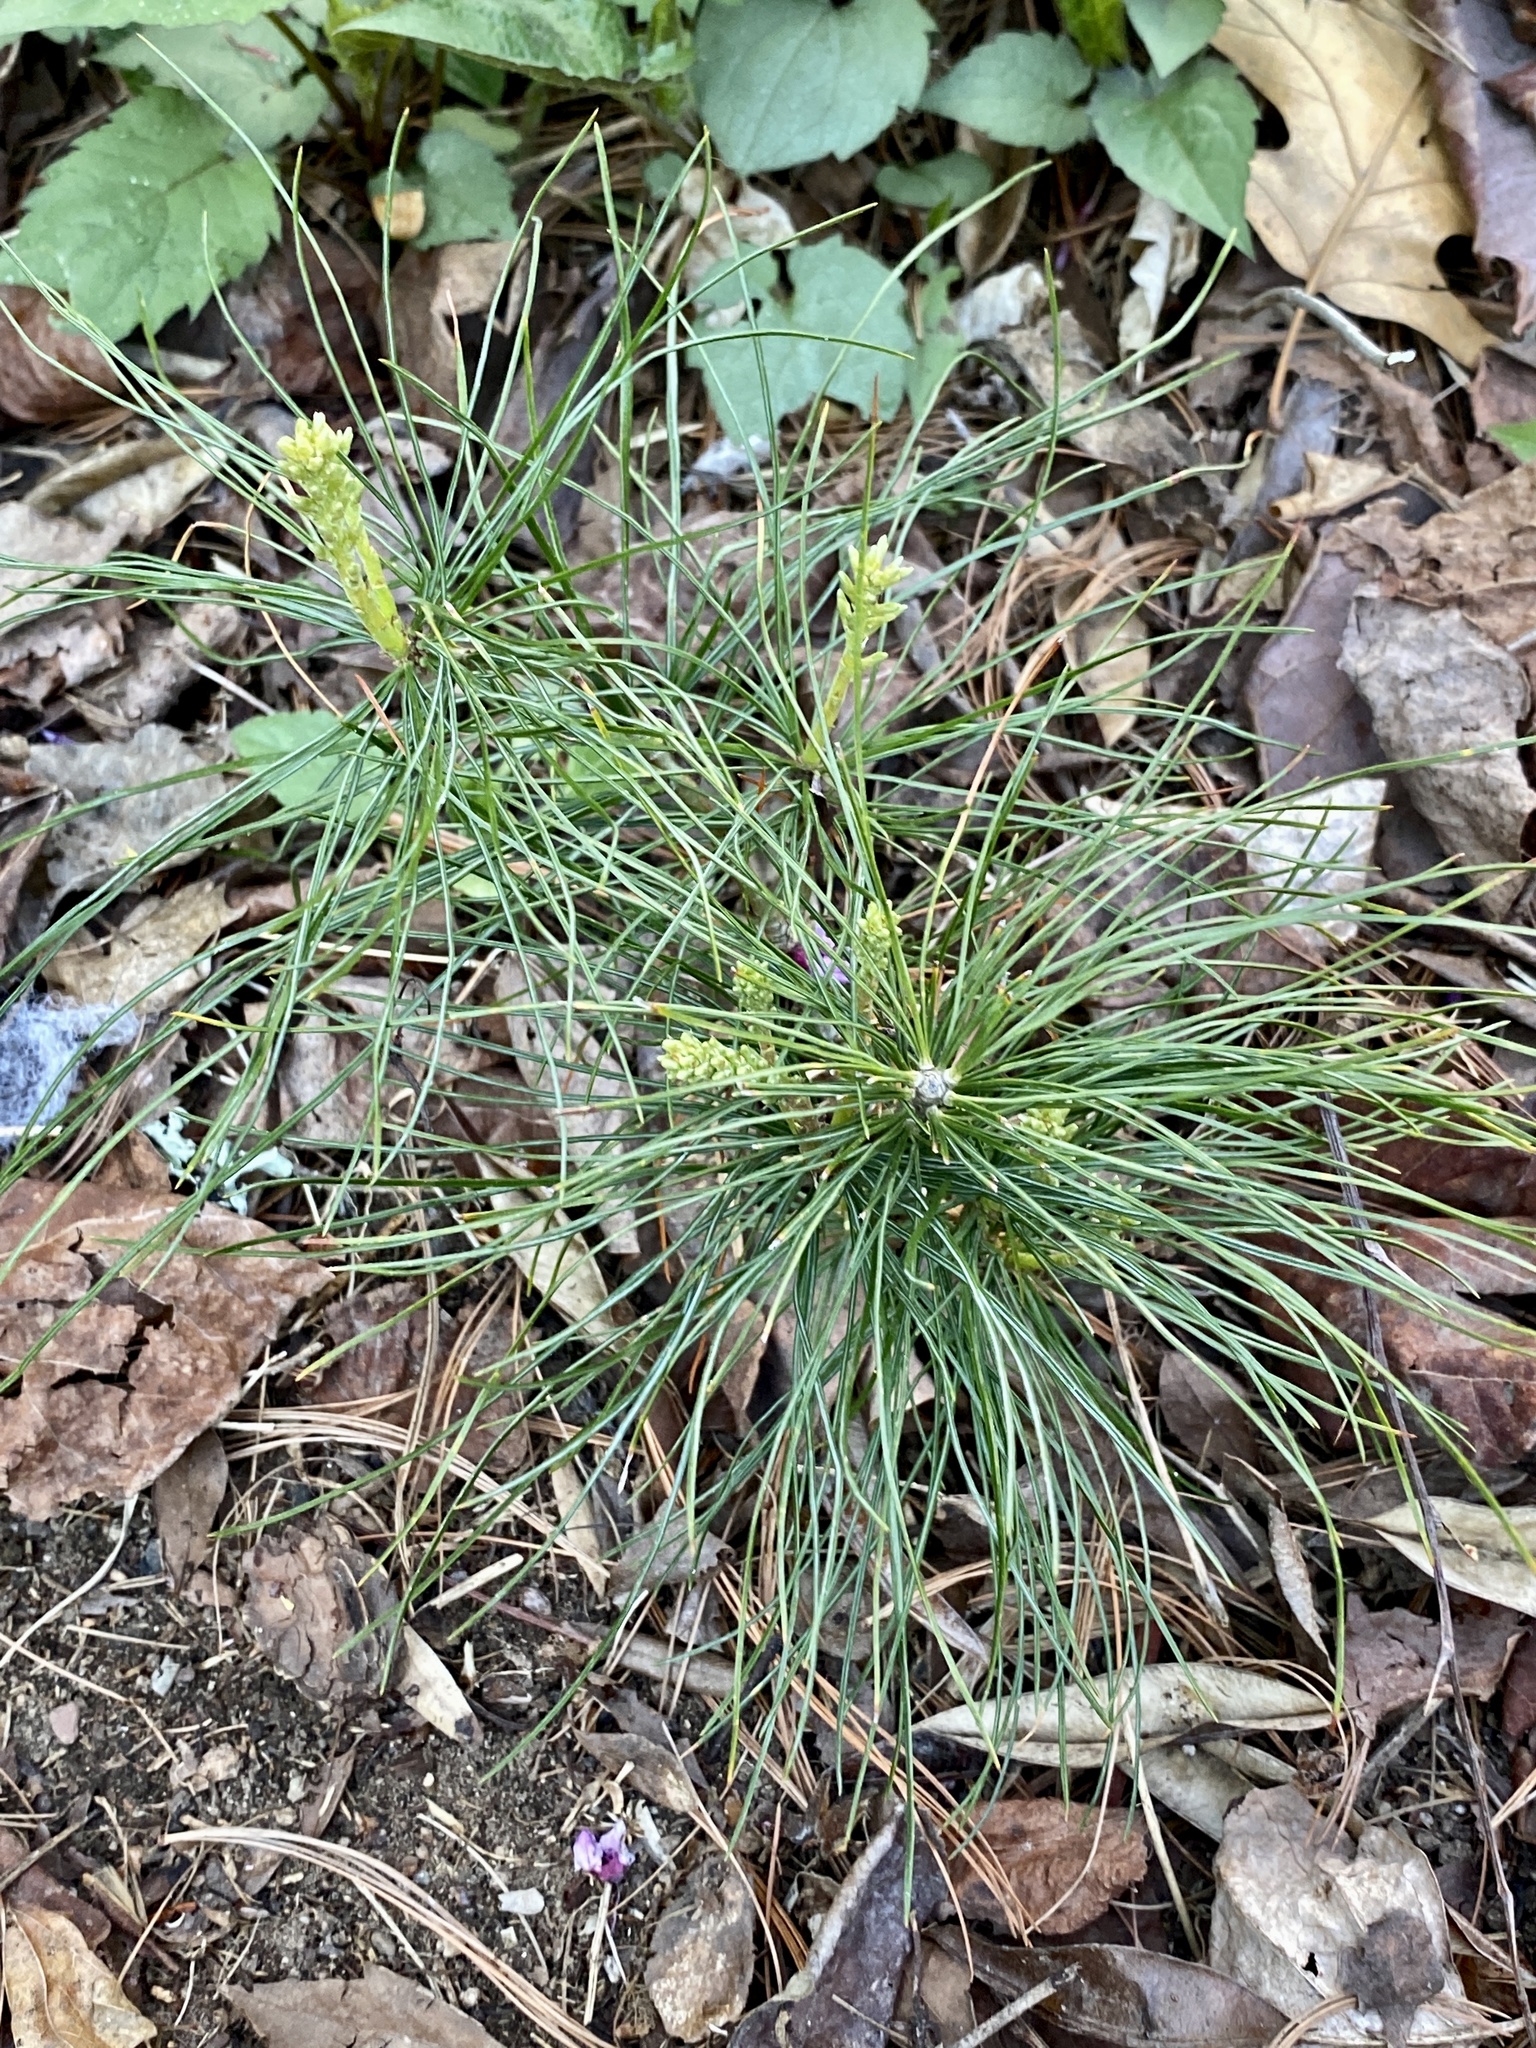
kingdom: Plantae
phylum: Tracheophyta
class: Pinopsida
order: Pinales
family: Pinaceae
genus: Pinus
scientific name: Pinus strobus
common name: Weymouth pine
